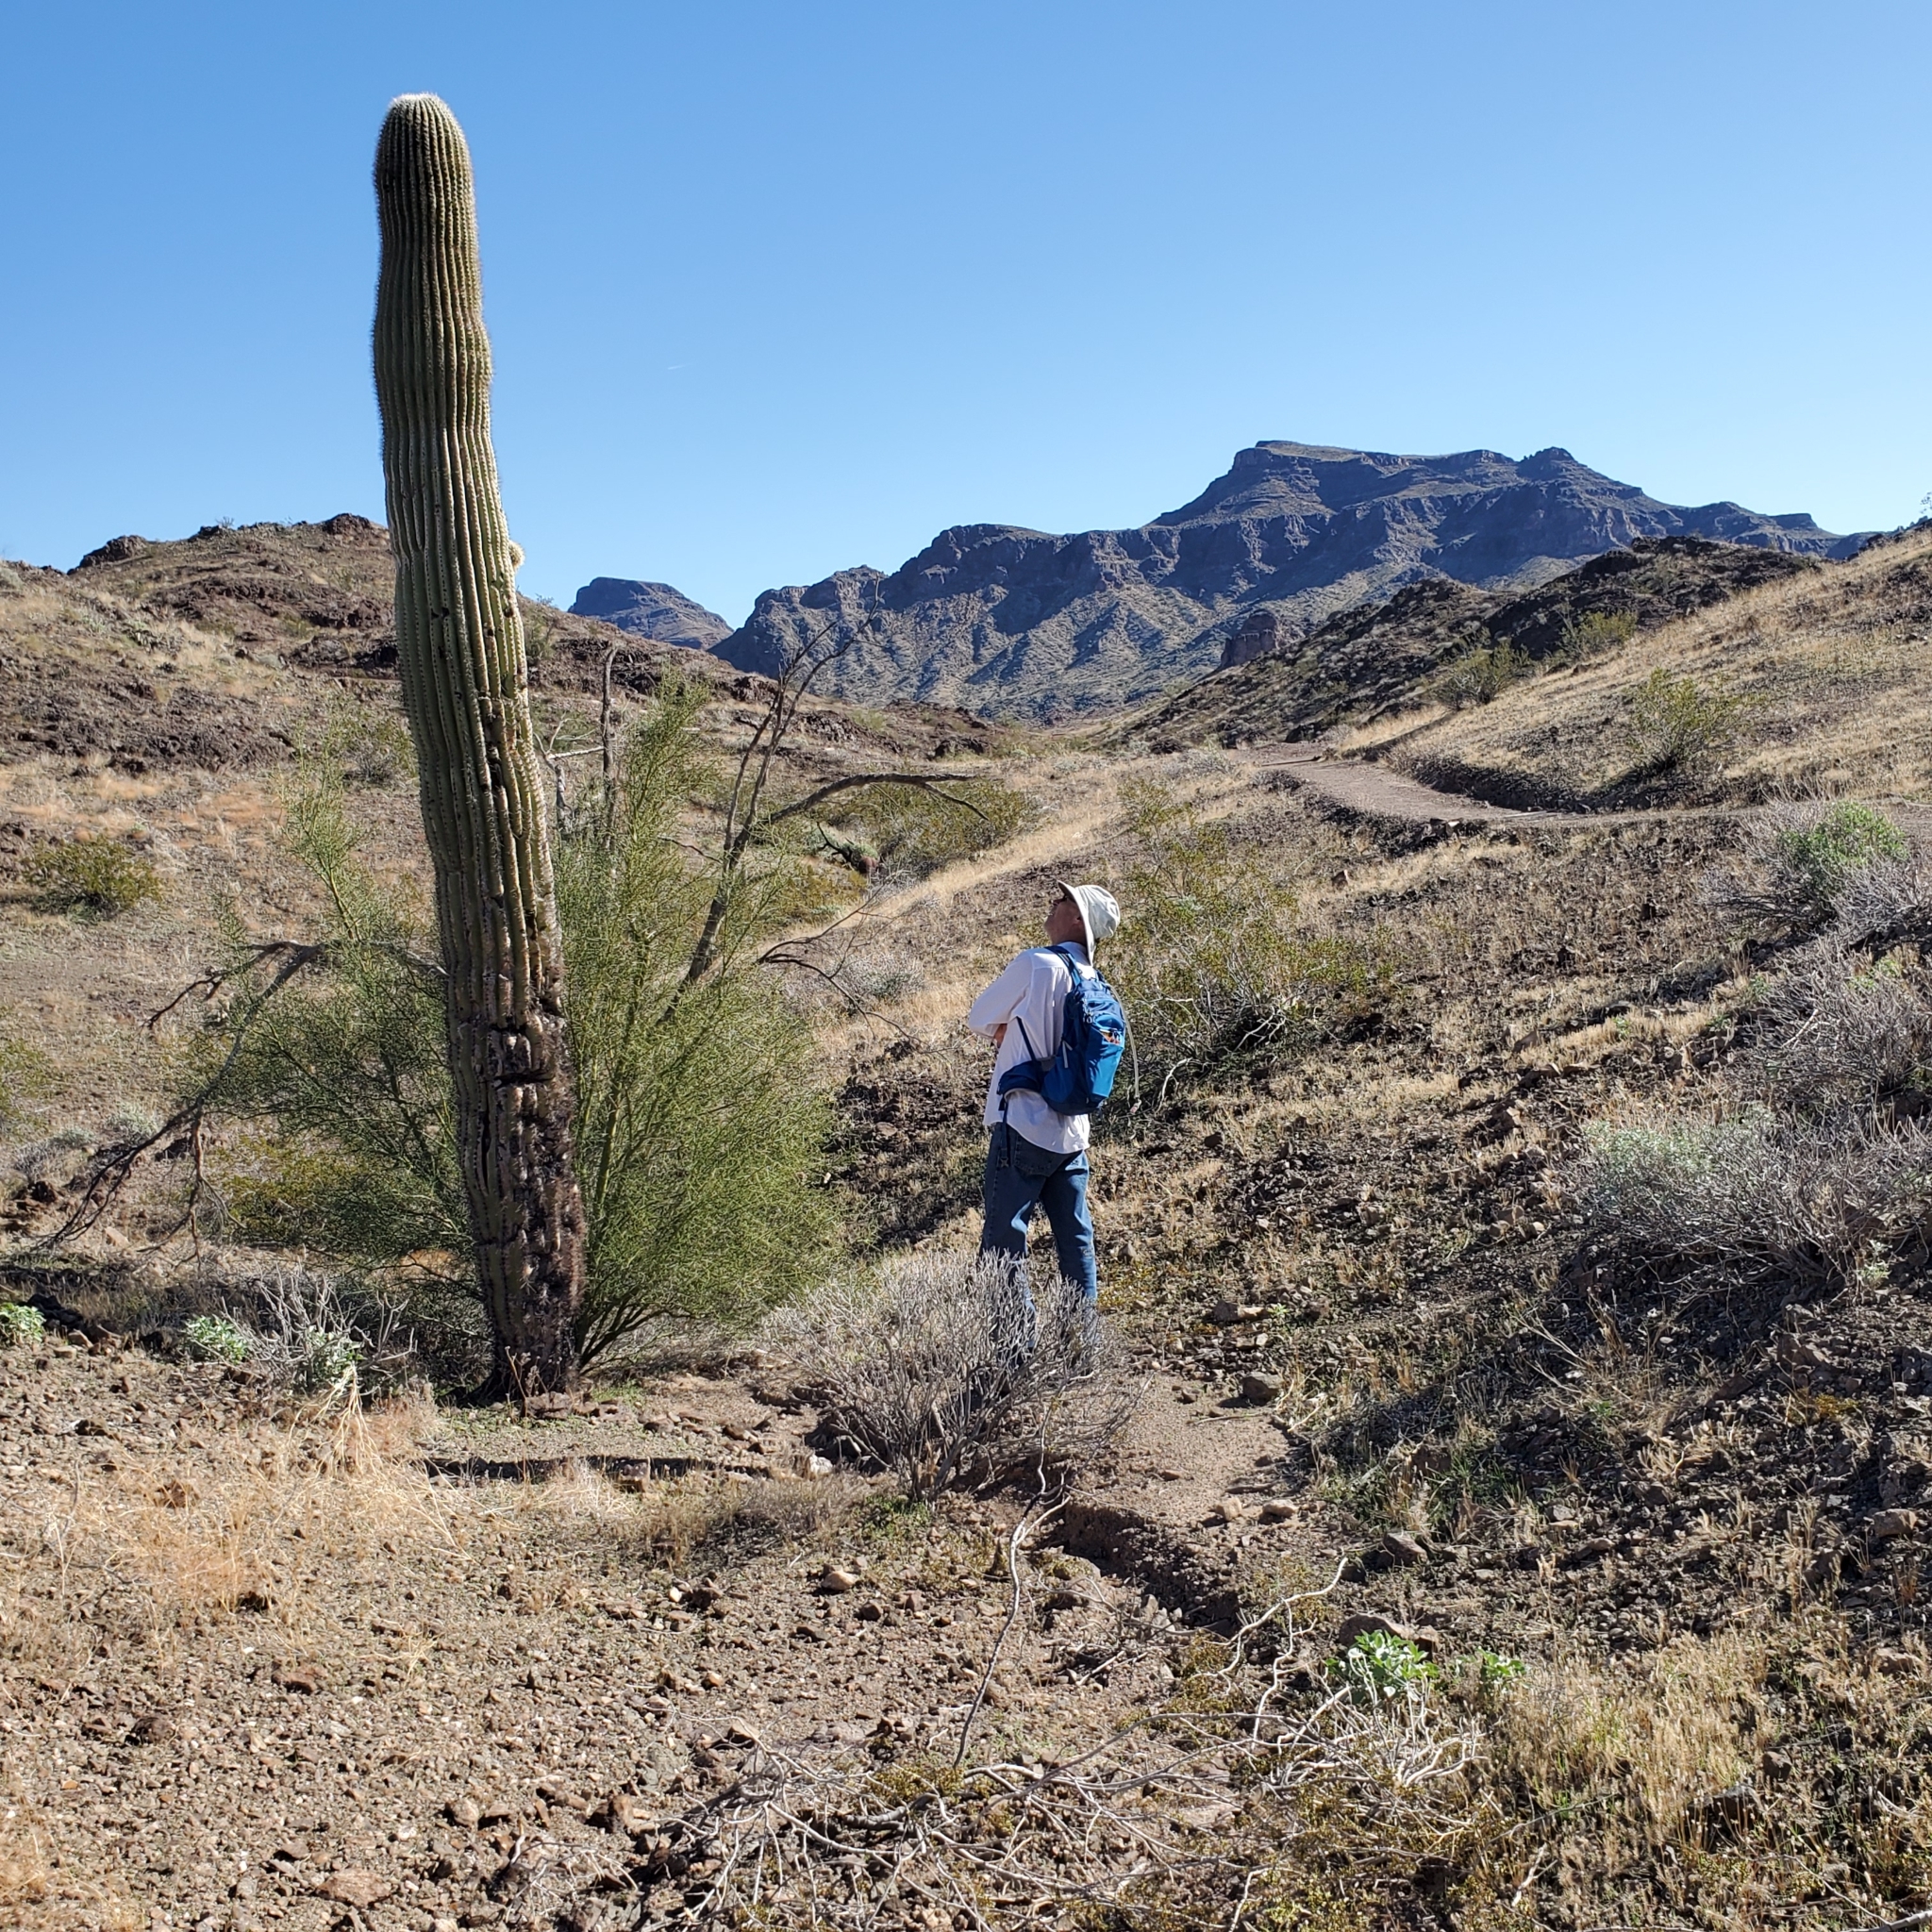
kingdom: Plantae
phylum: Tracheophyta
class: Magnoliopsida
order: Caryophyllales
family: Cactaceae
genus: Carnegiea
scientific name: Carnegiea gigantea
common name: Saguaro
